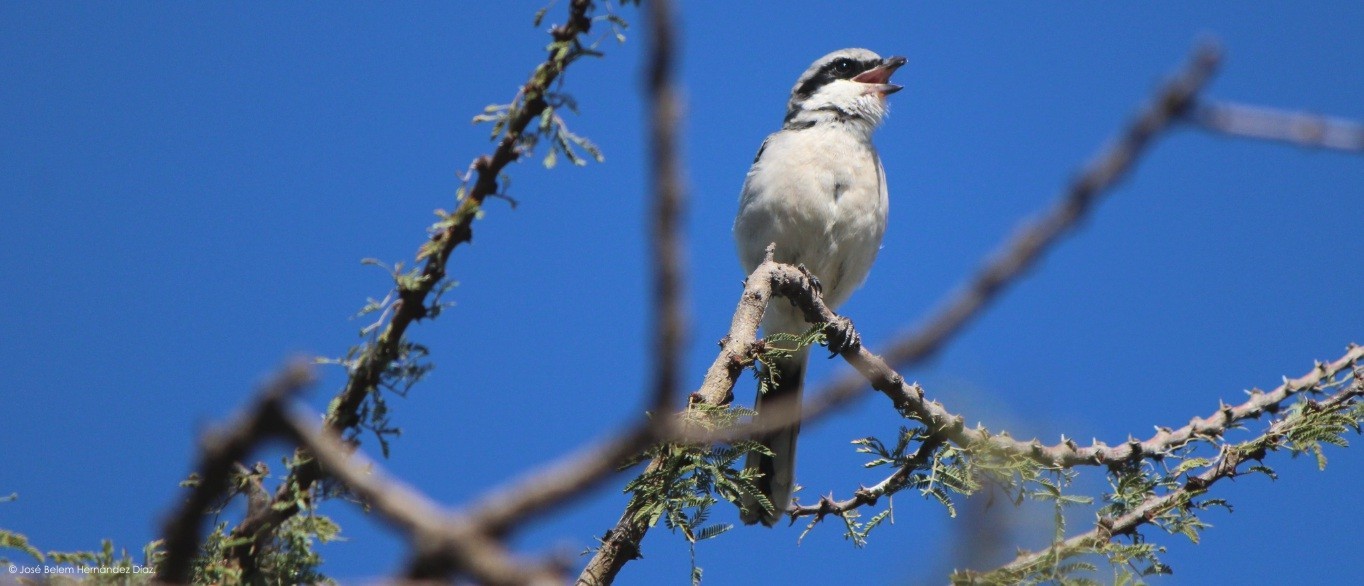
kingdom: Animalia
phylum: Chordata
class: Aves
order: Passeriformes
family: Laniidae
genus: Lanius
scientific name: Lanius ludovicianus
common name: Loggerhead shrike
